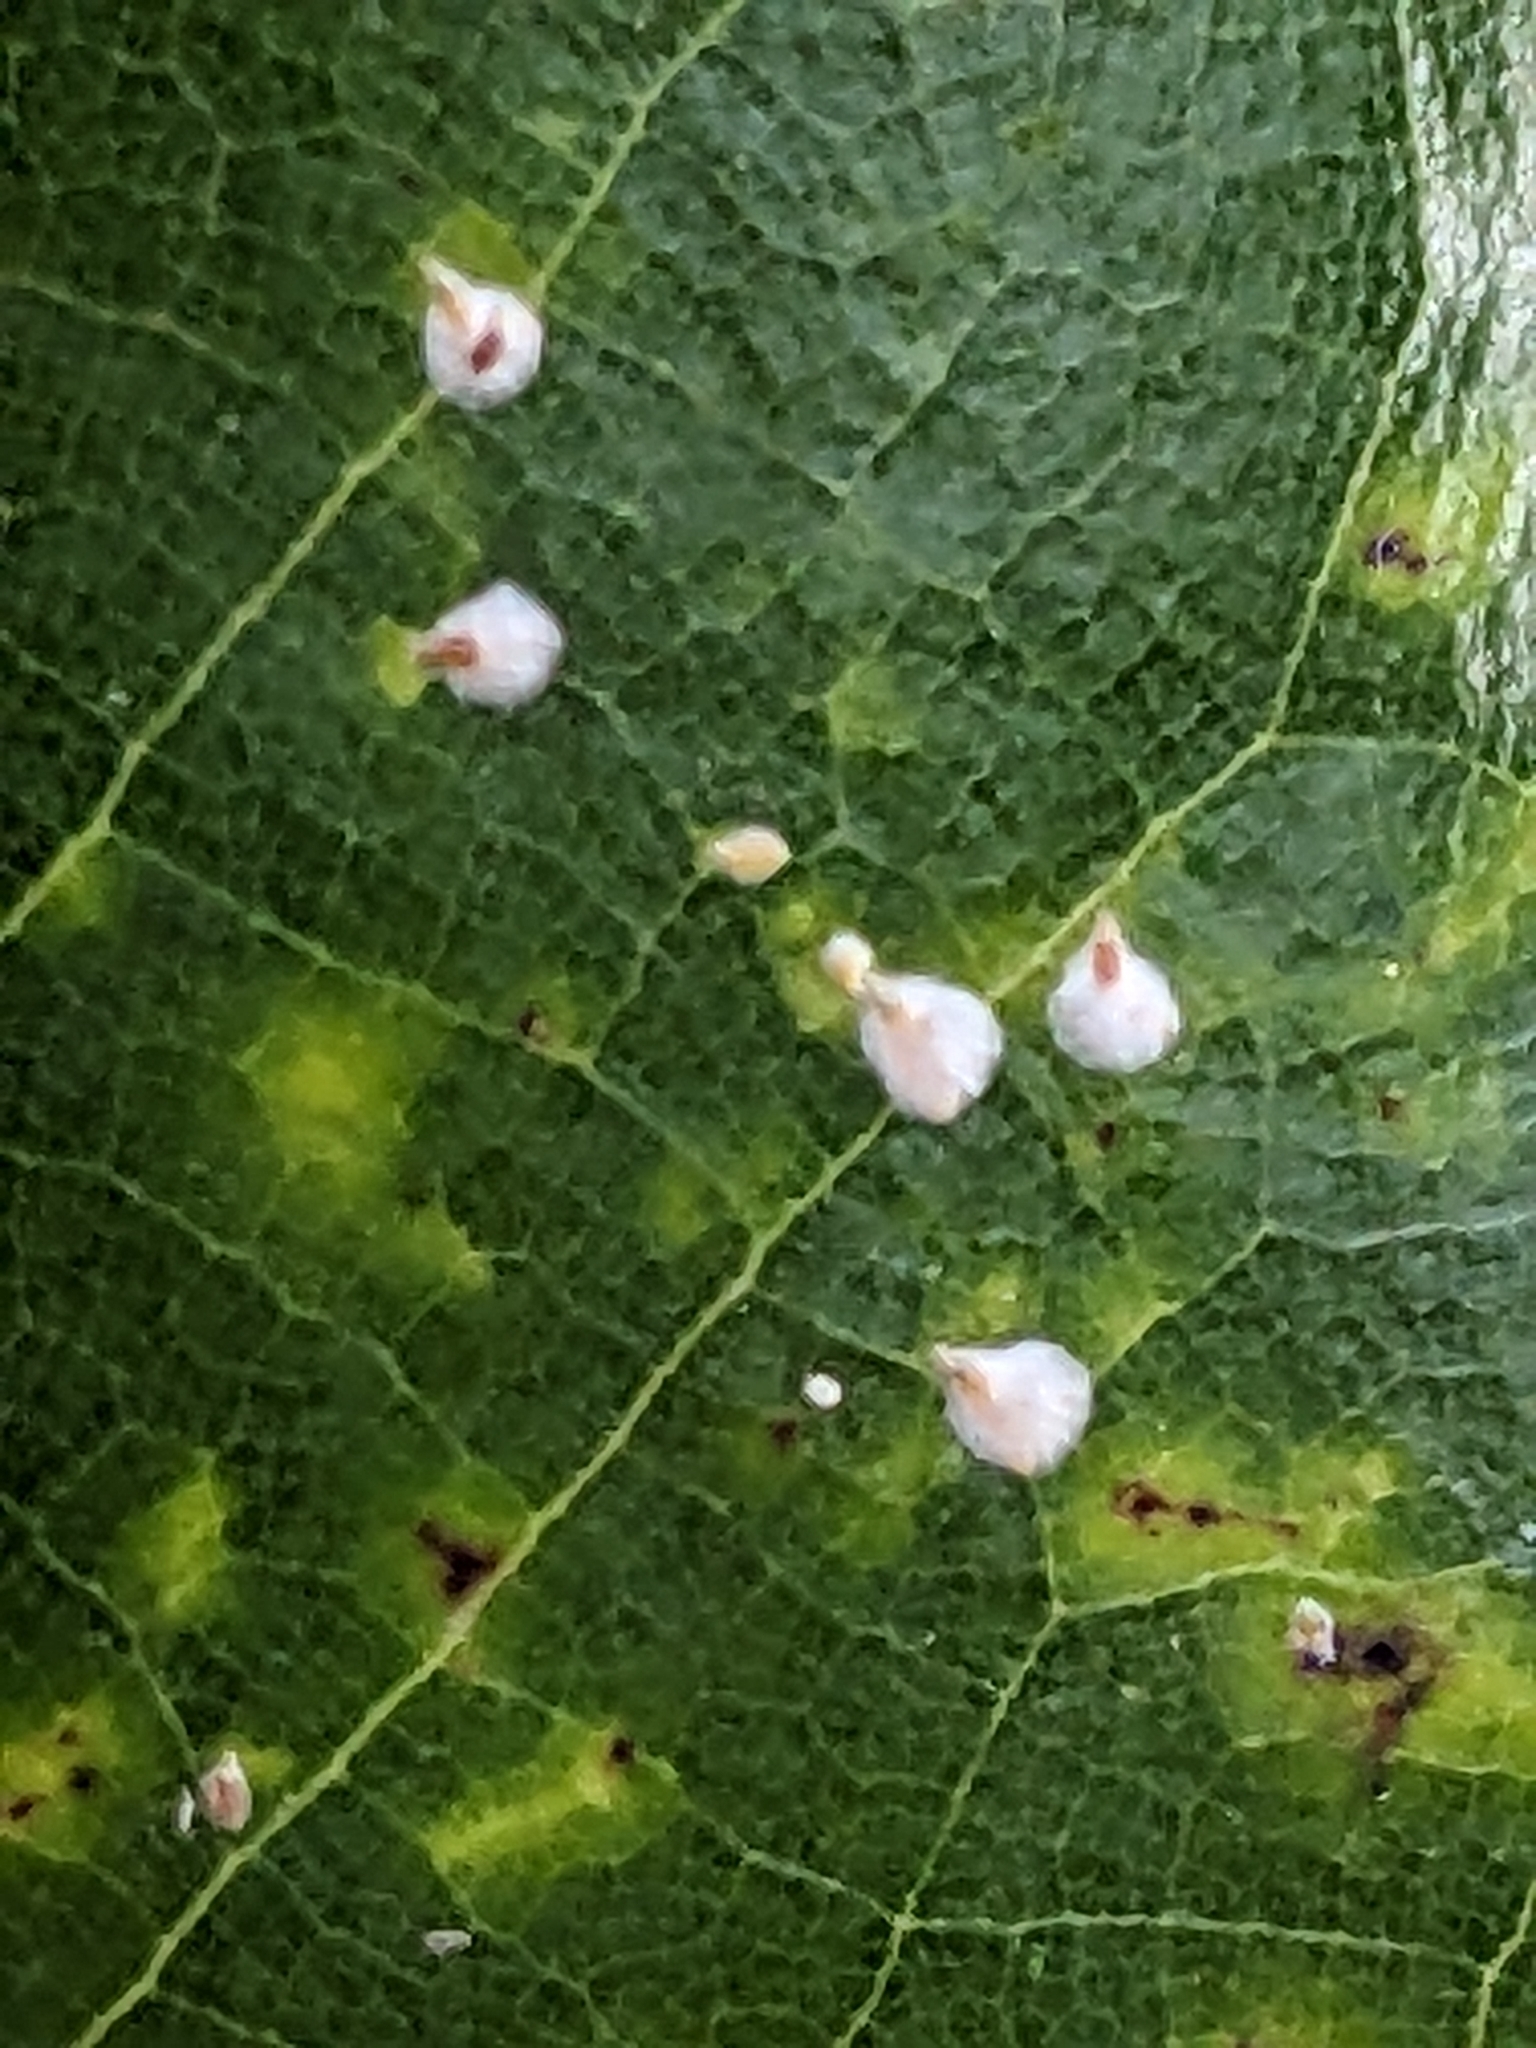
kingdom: Animalia
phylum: Arthropoda
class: Insecta
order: Hemiptera
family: Diaspididae
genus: Pseudaulacaspis
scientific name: Pseudaulacaspis cockerelli
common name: False oleander scale
